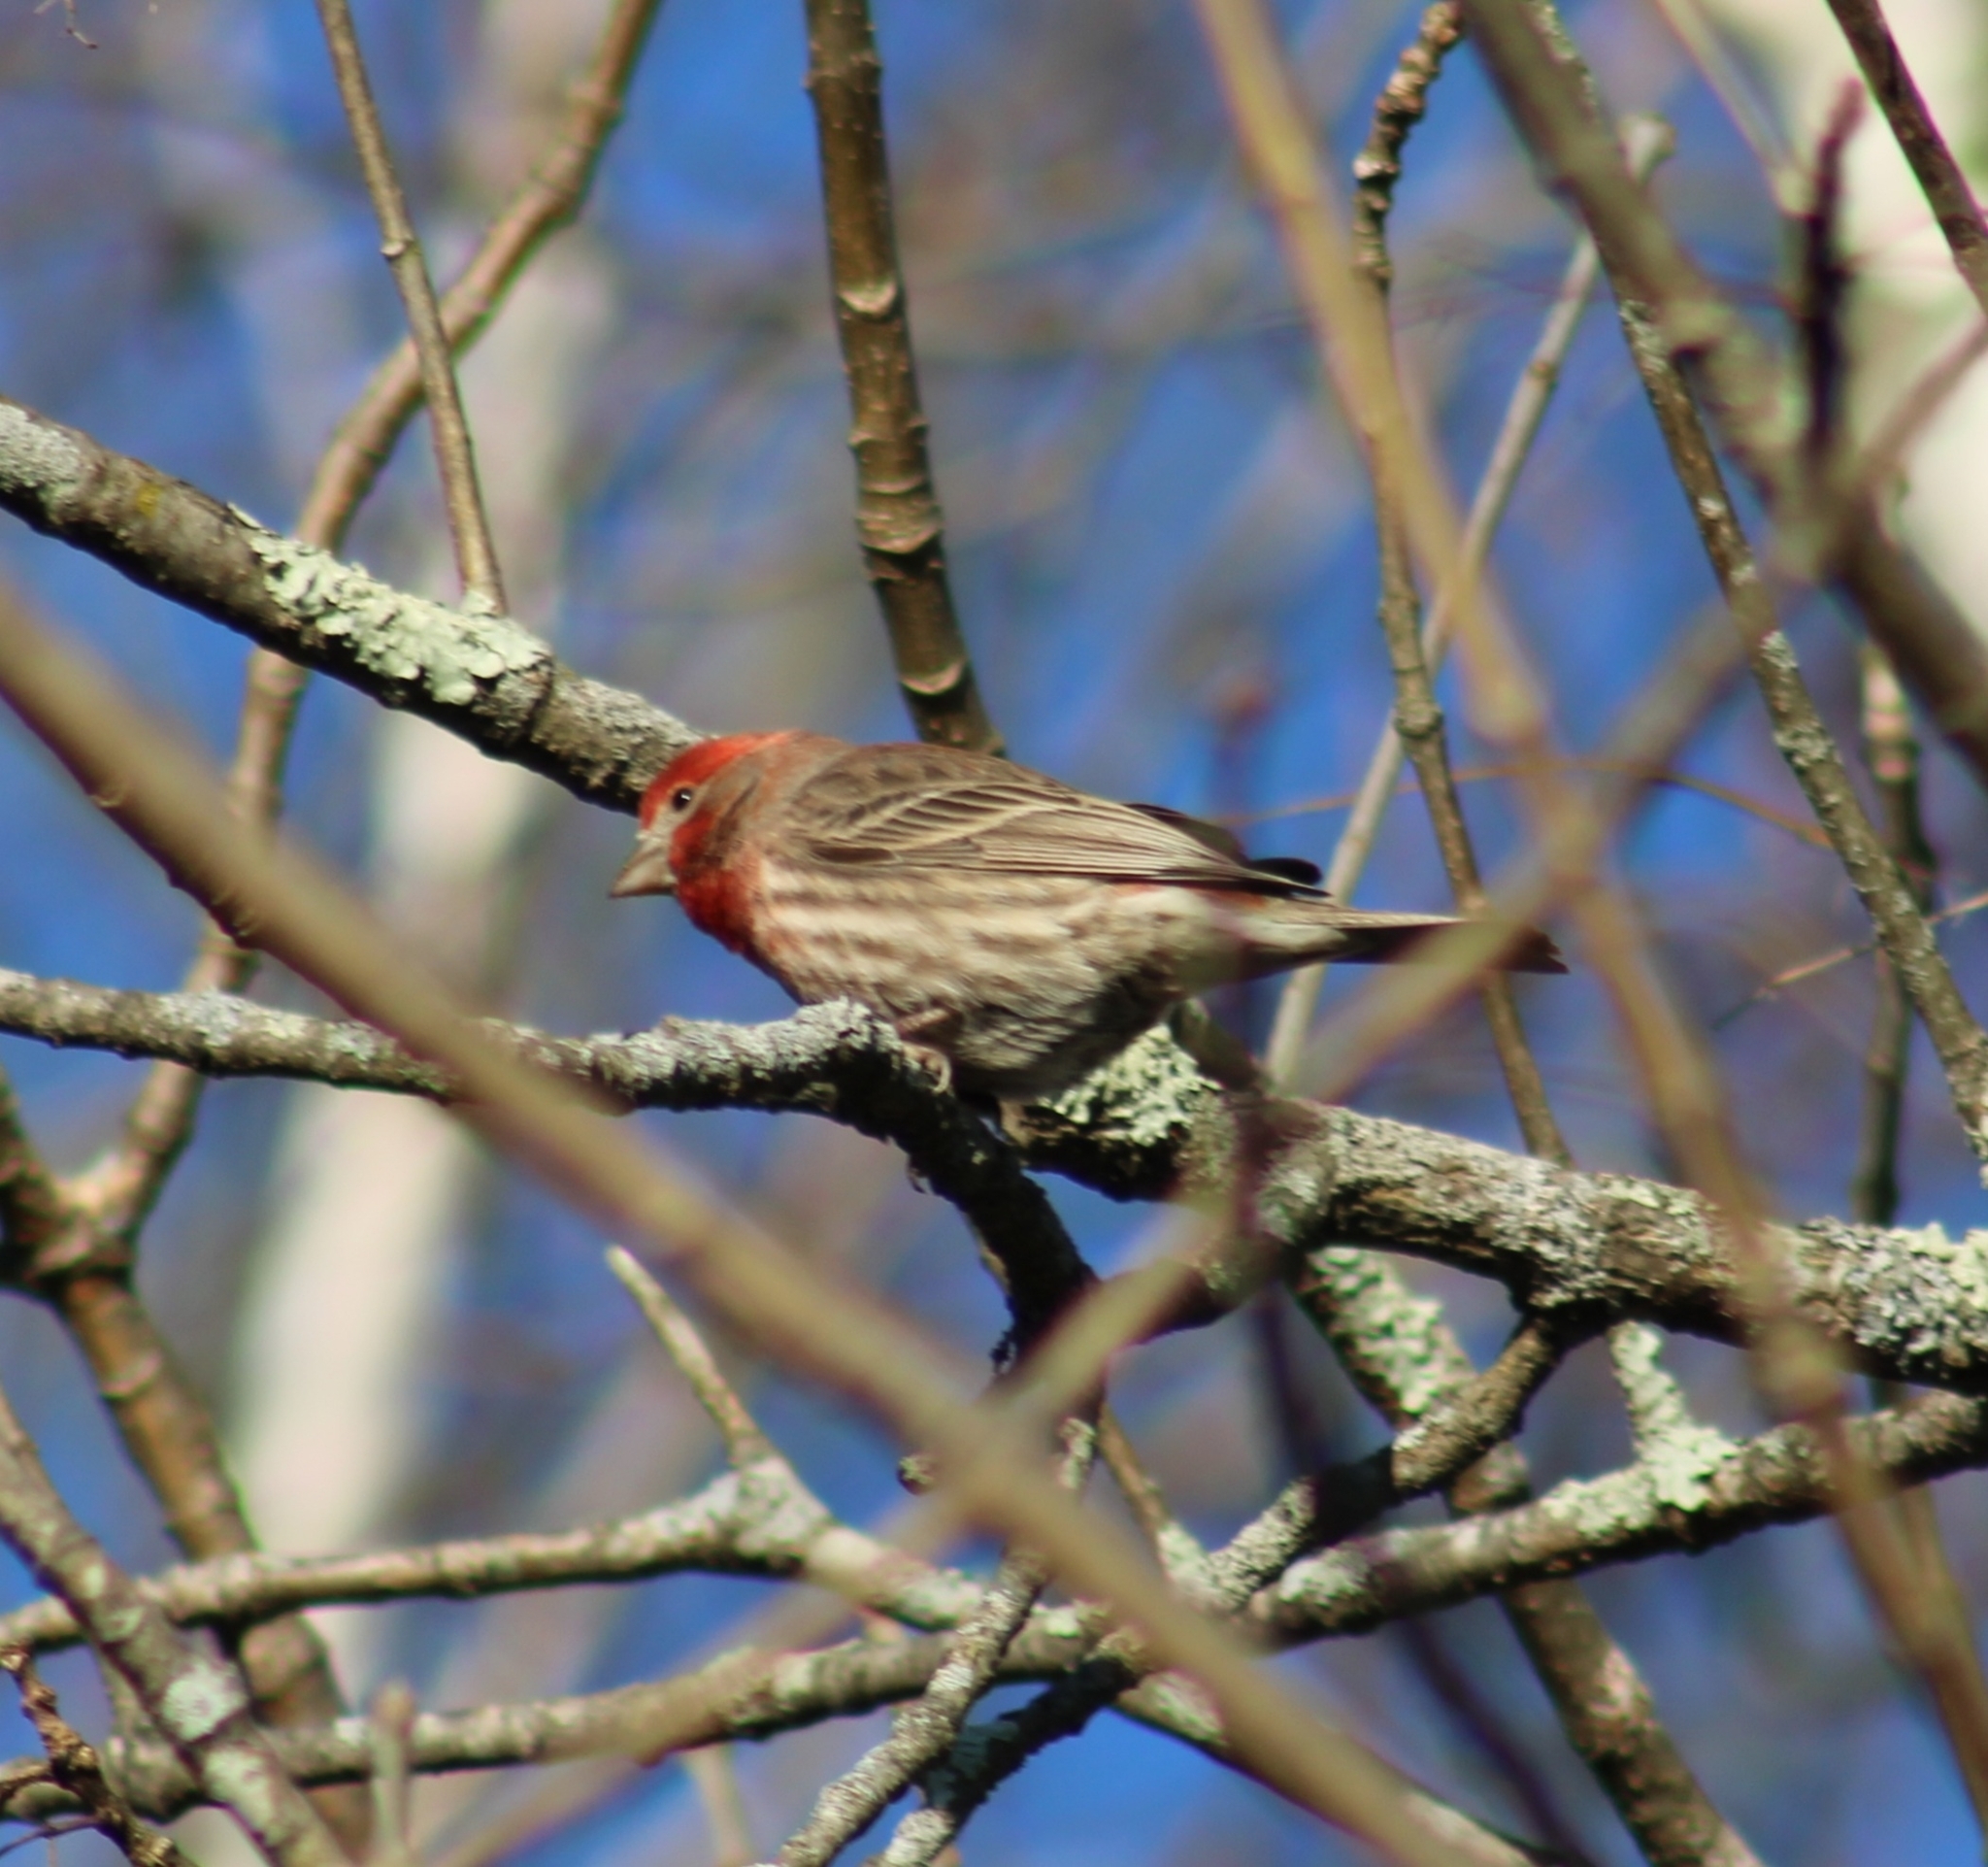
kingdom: Animalia
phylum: Chordata
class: Aves
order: Passeriformes
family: Fringillidae
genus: Haemorhous
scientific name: Haemorhous mexicanus
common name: House finch
